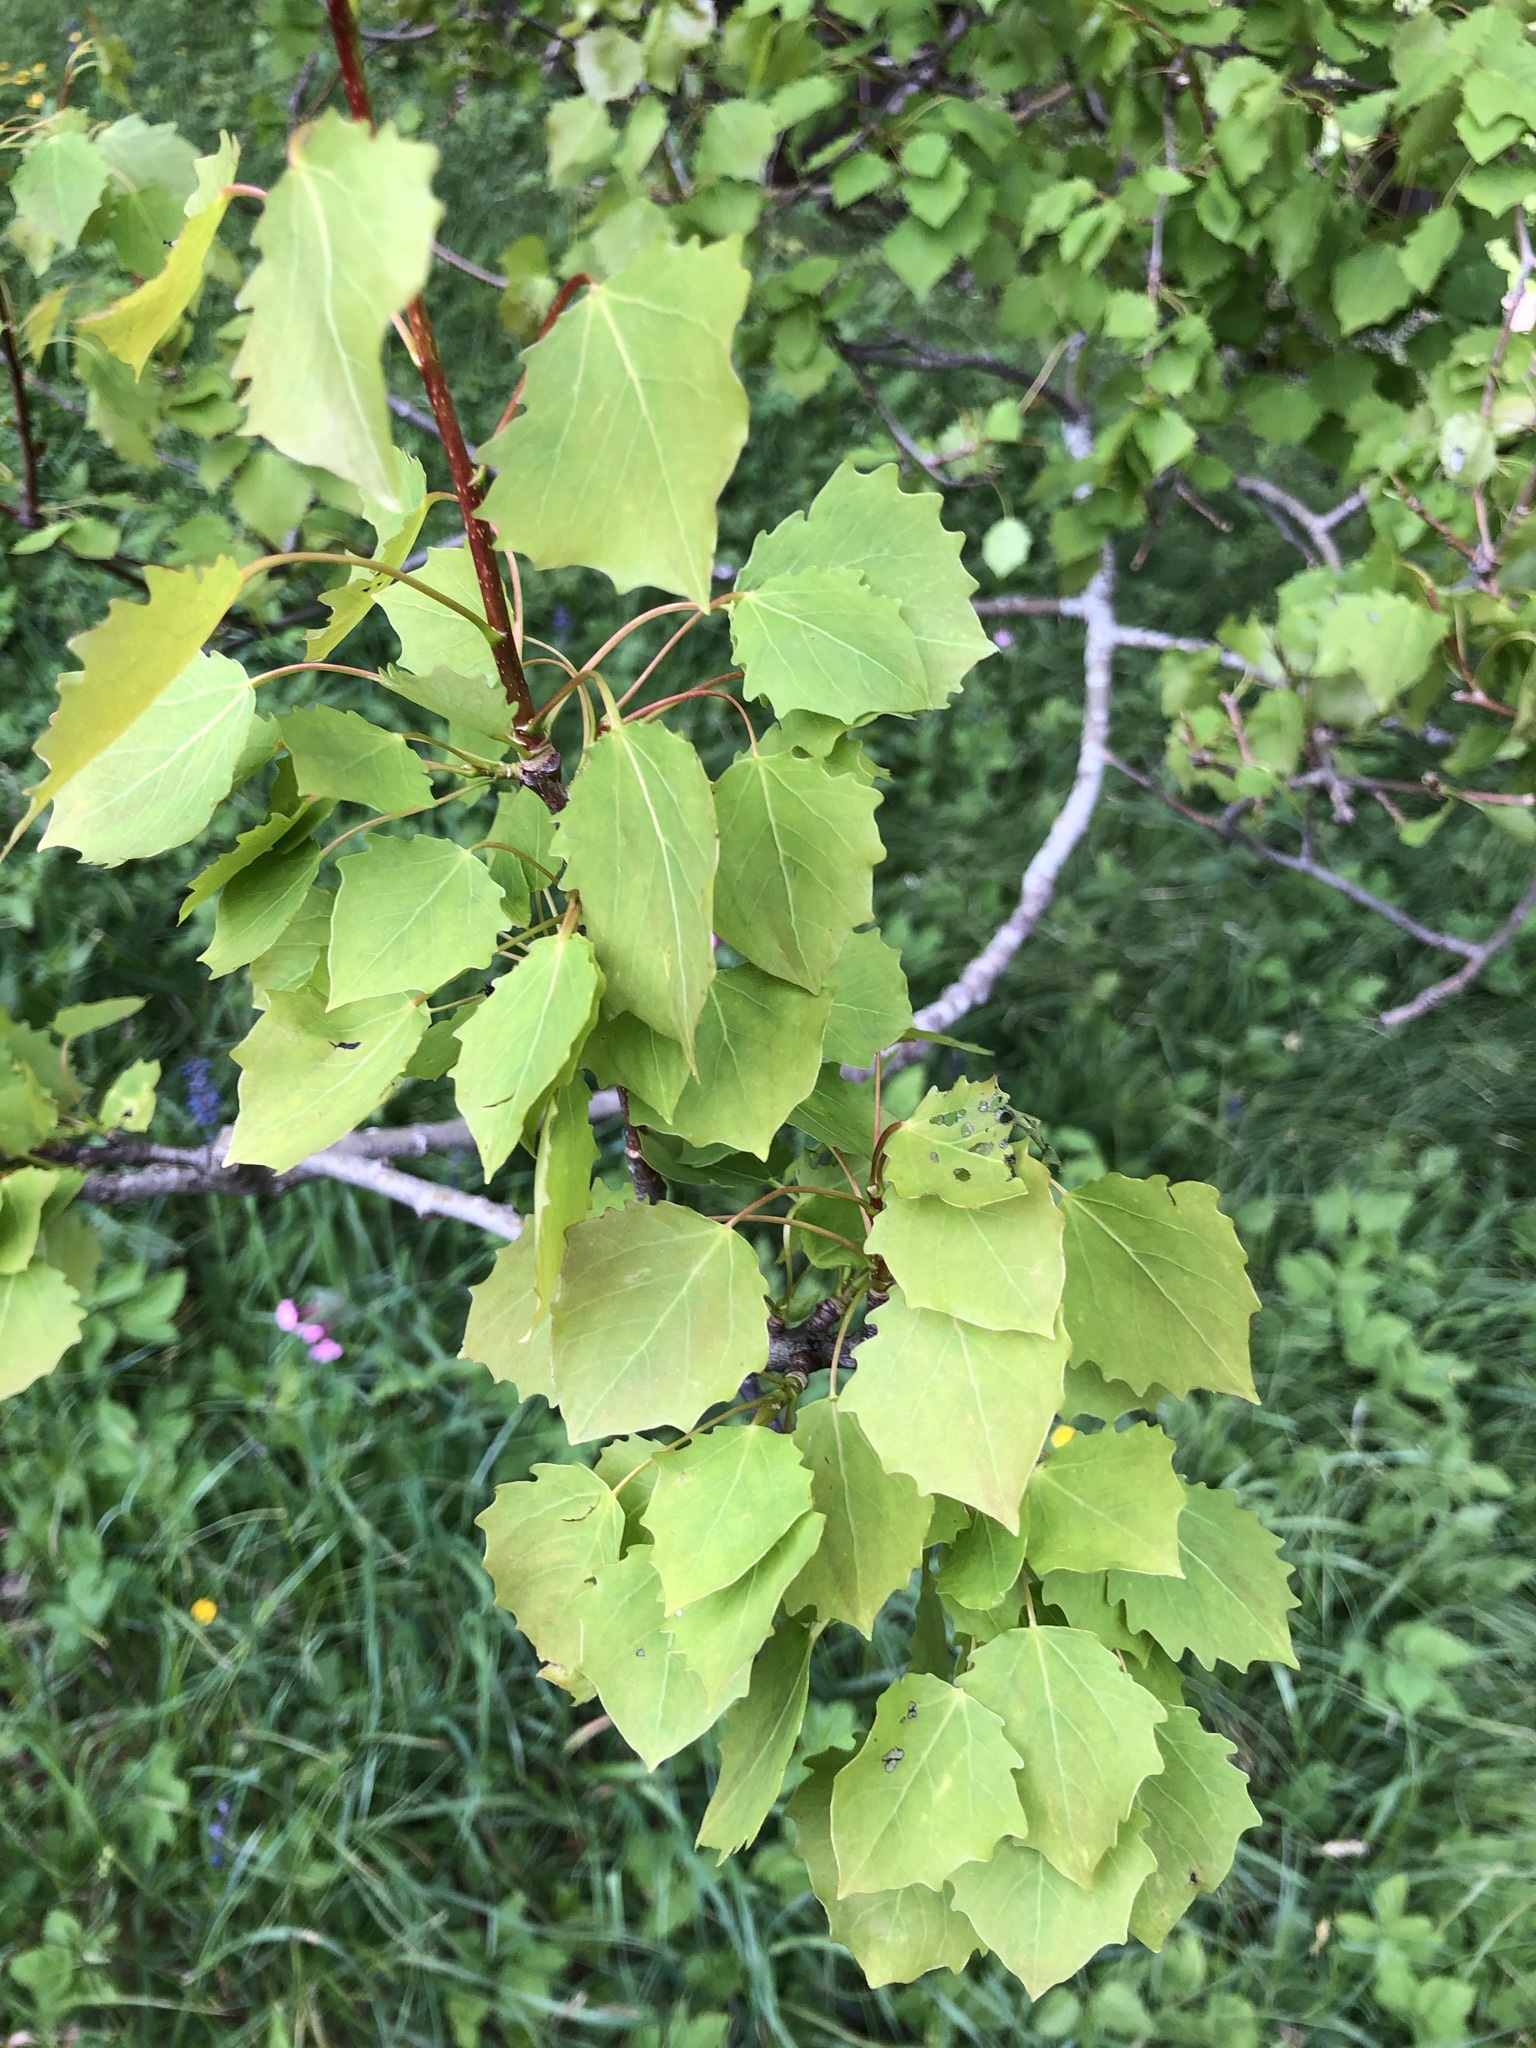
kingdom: Plantae
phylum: Tracheophyta
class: Magnoliopsida
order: Malpighiales
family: Salicaceae
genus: Populus
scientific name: Populus tremula
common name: European aspen
